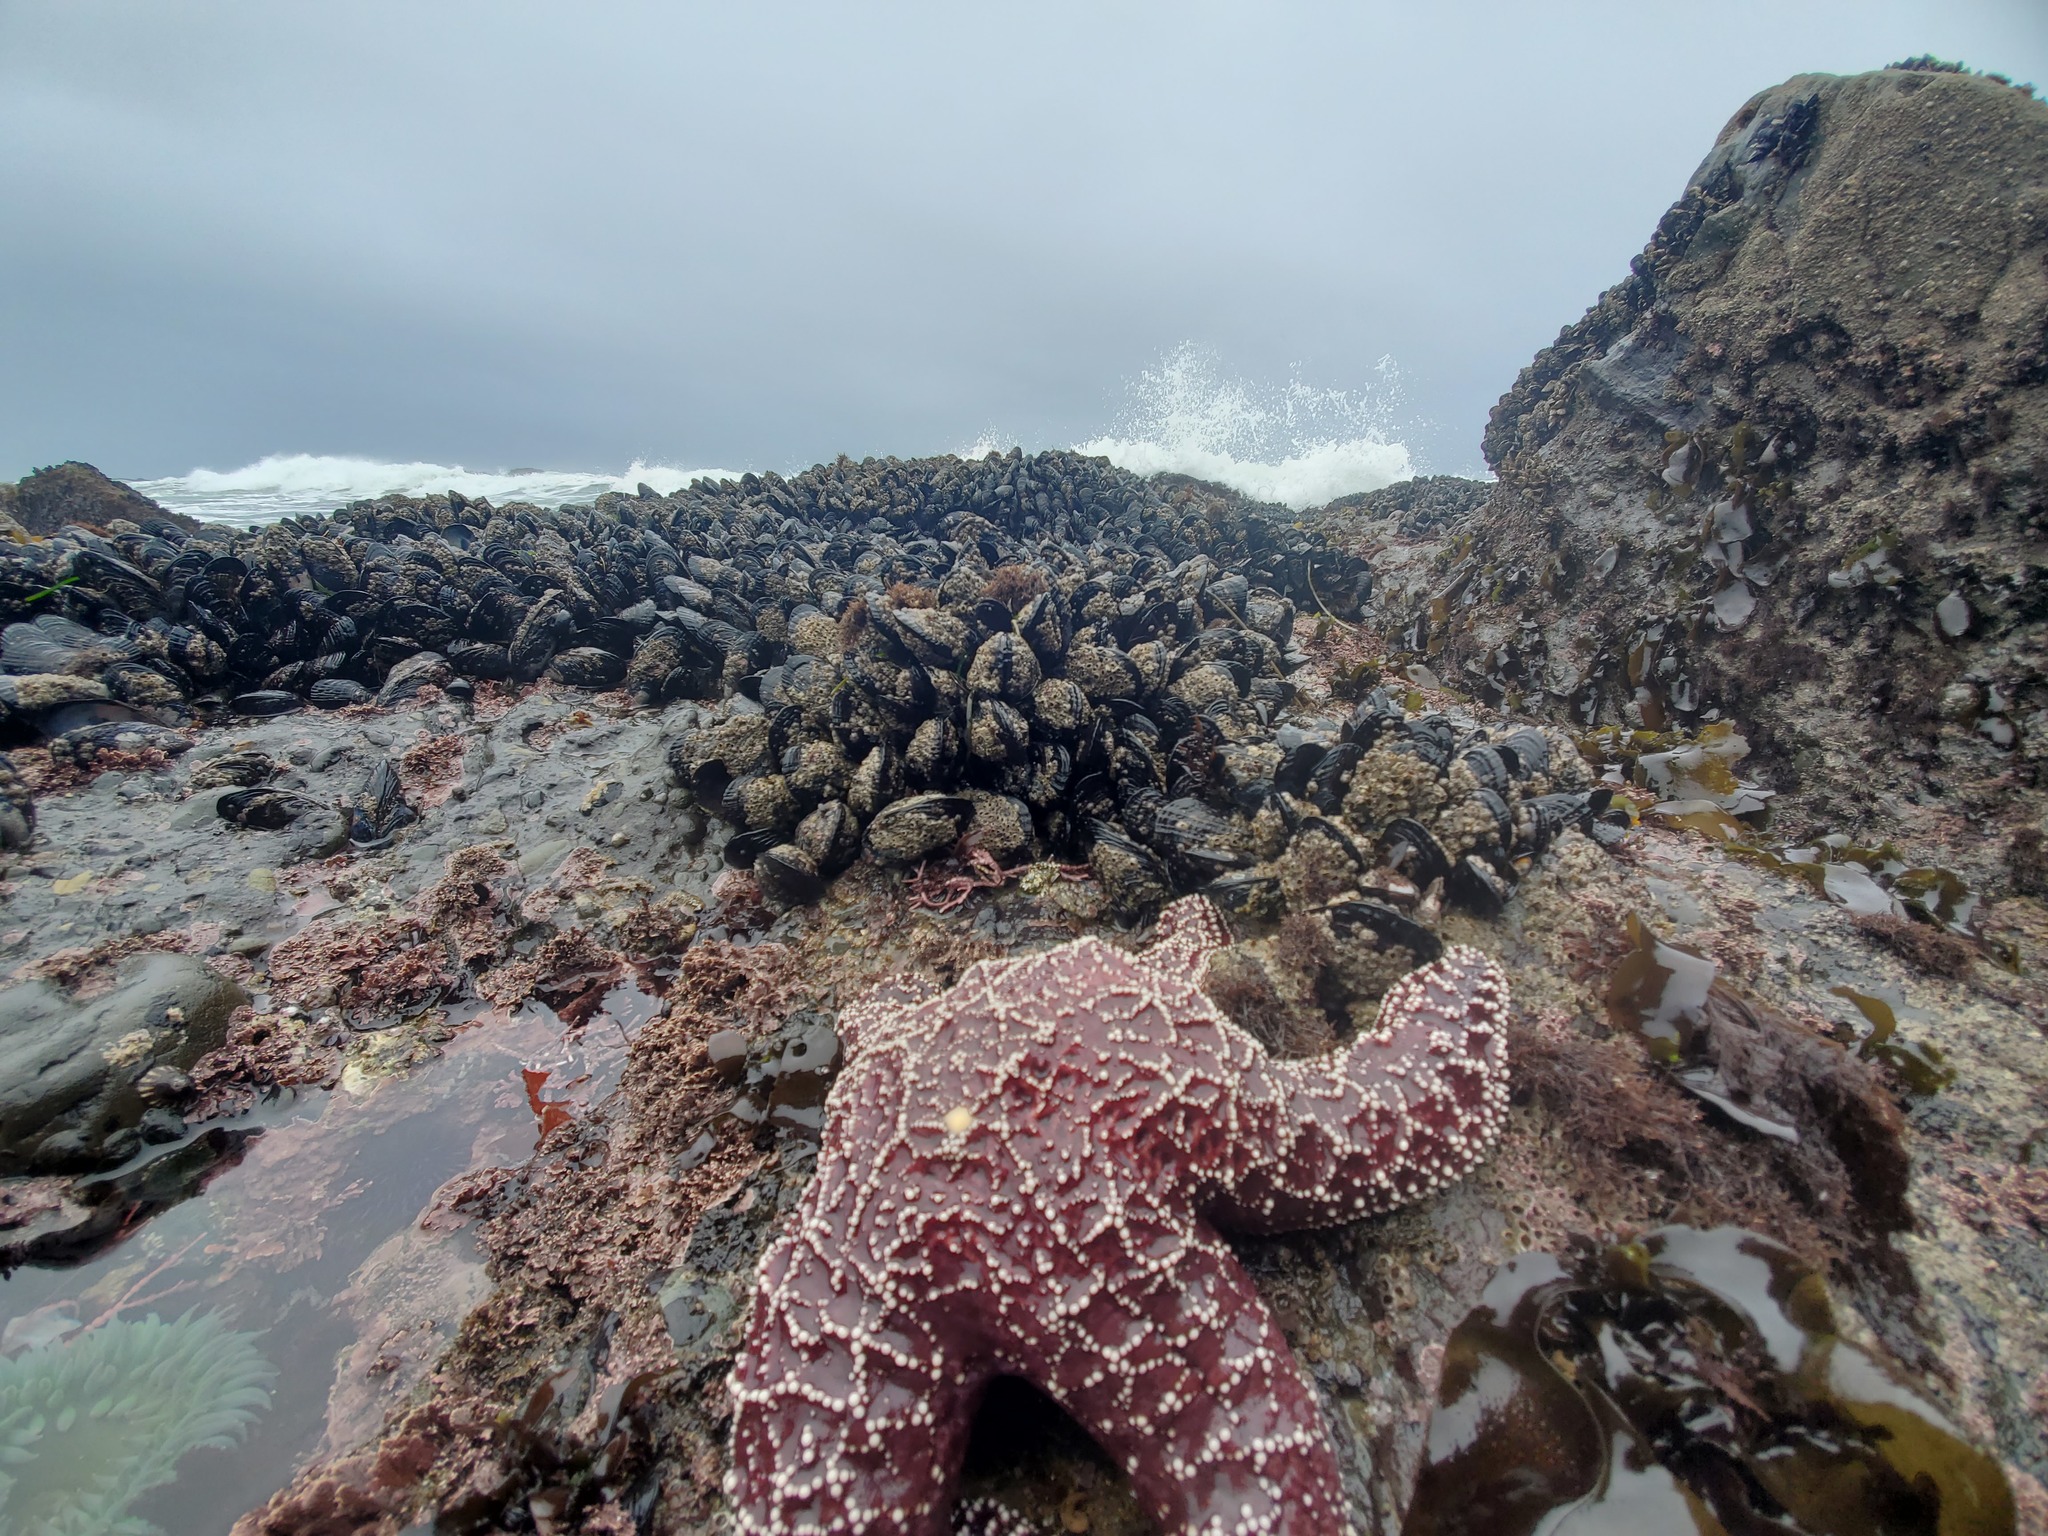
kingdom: Animalia
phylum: Echinodermata
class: Asteroidea
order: Forcipulatida
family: Asteriidae
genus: Pisaster
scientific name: Pisaster ochraceus
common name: Ochre stars
